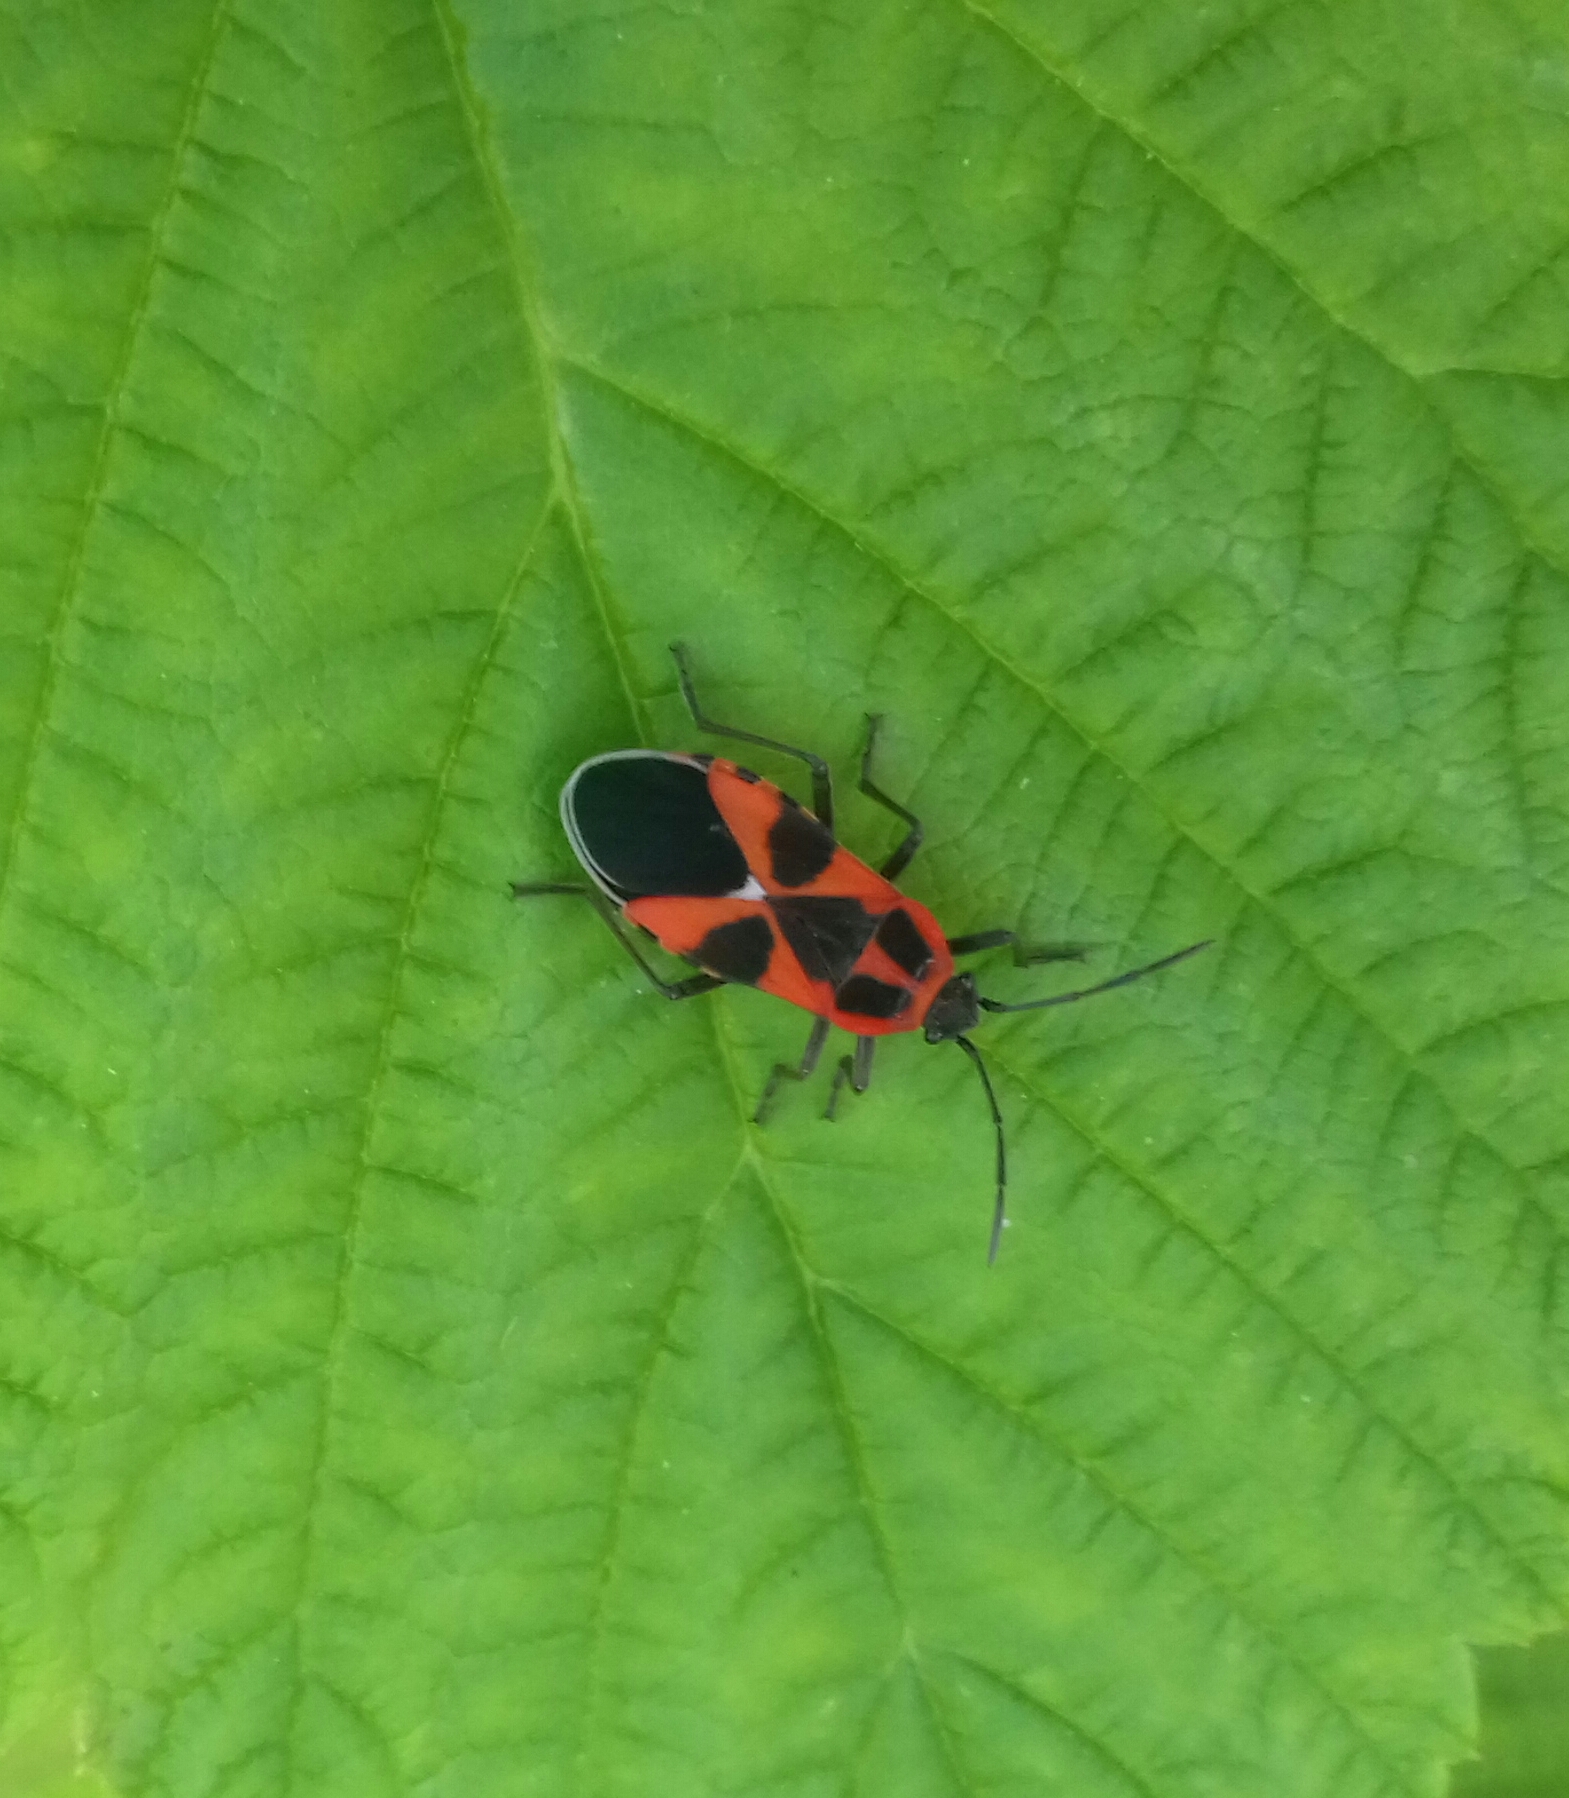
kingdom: Animalia
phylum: Arthropoda
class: Insecta
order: Hemiptera
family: Lygaeidae
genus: Tropidothorax
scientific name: Tropidothorax leucopterus
